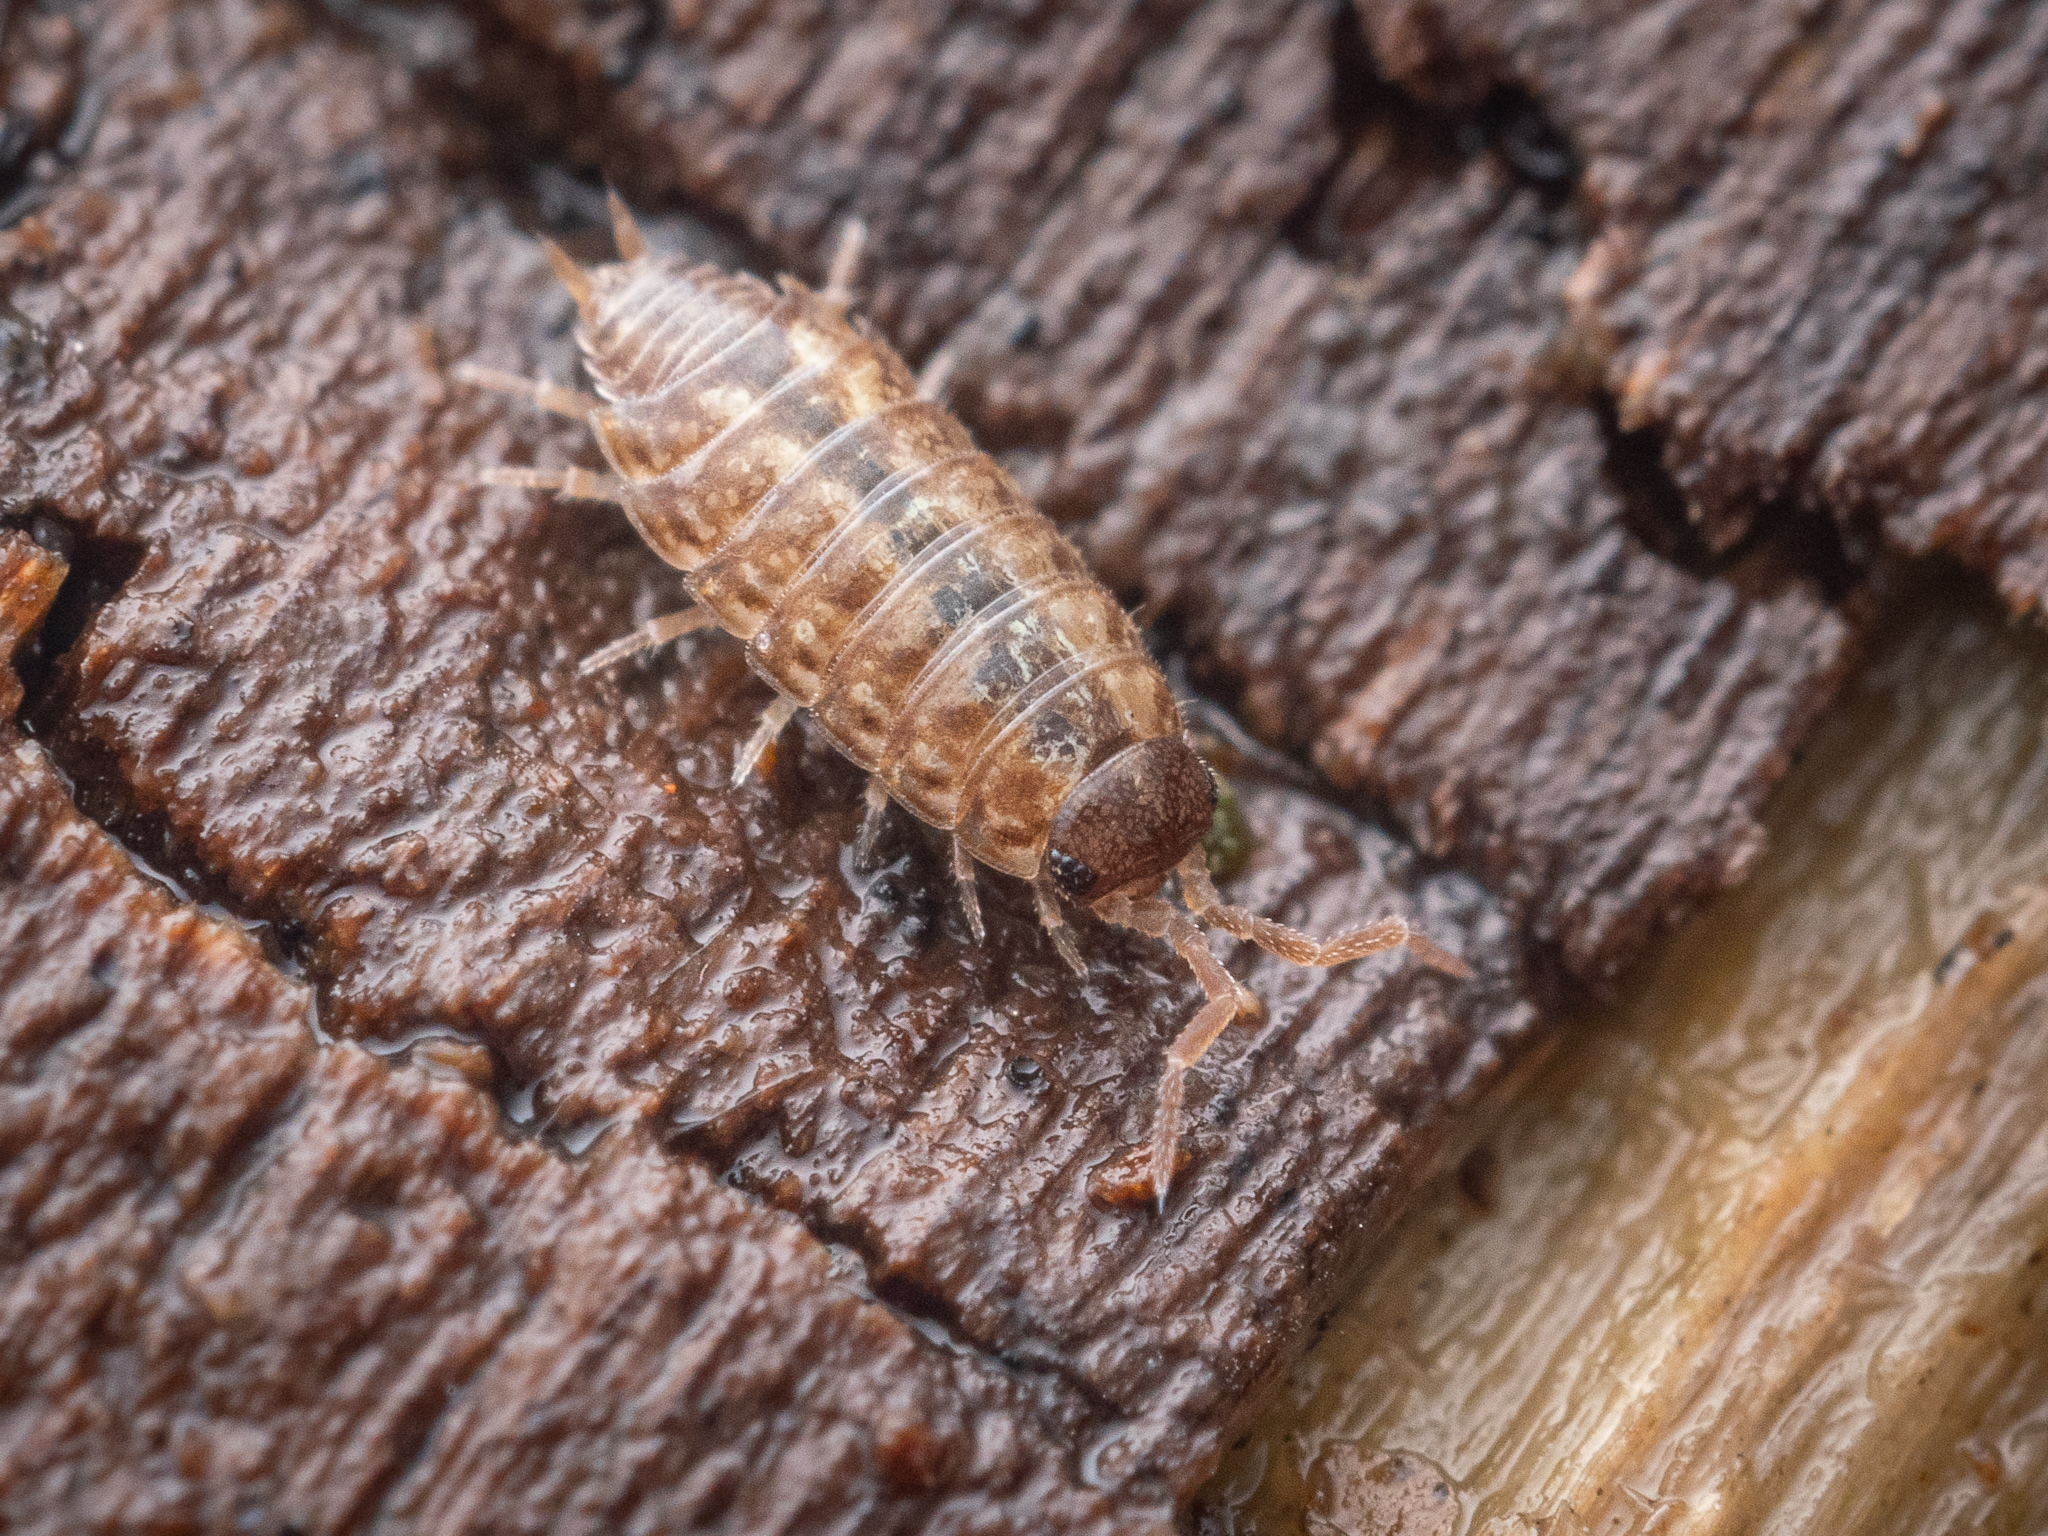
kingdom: Animalia
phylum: Arthropoda
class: Malacostraca
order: Isopoda
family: Philosciidae
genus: Philoscia
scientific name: Philoscia muscorum
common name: Common striped woodlouse
